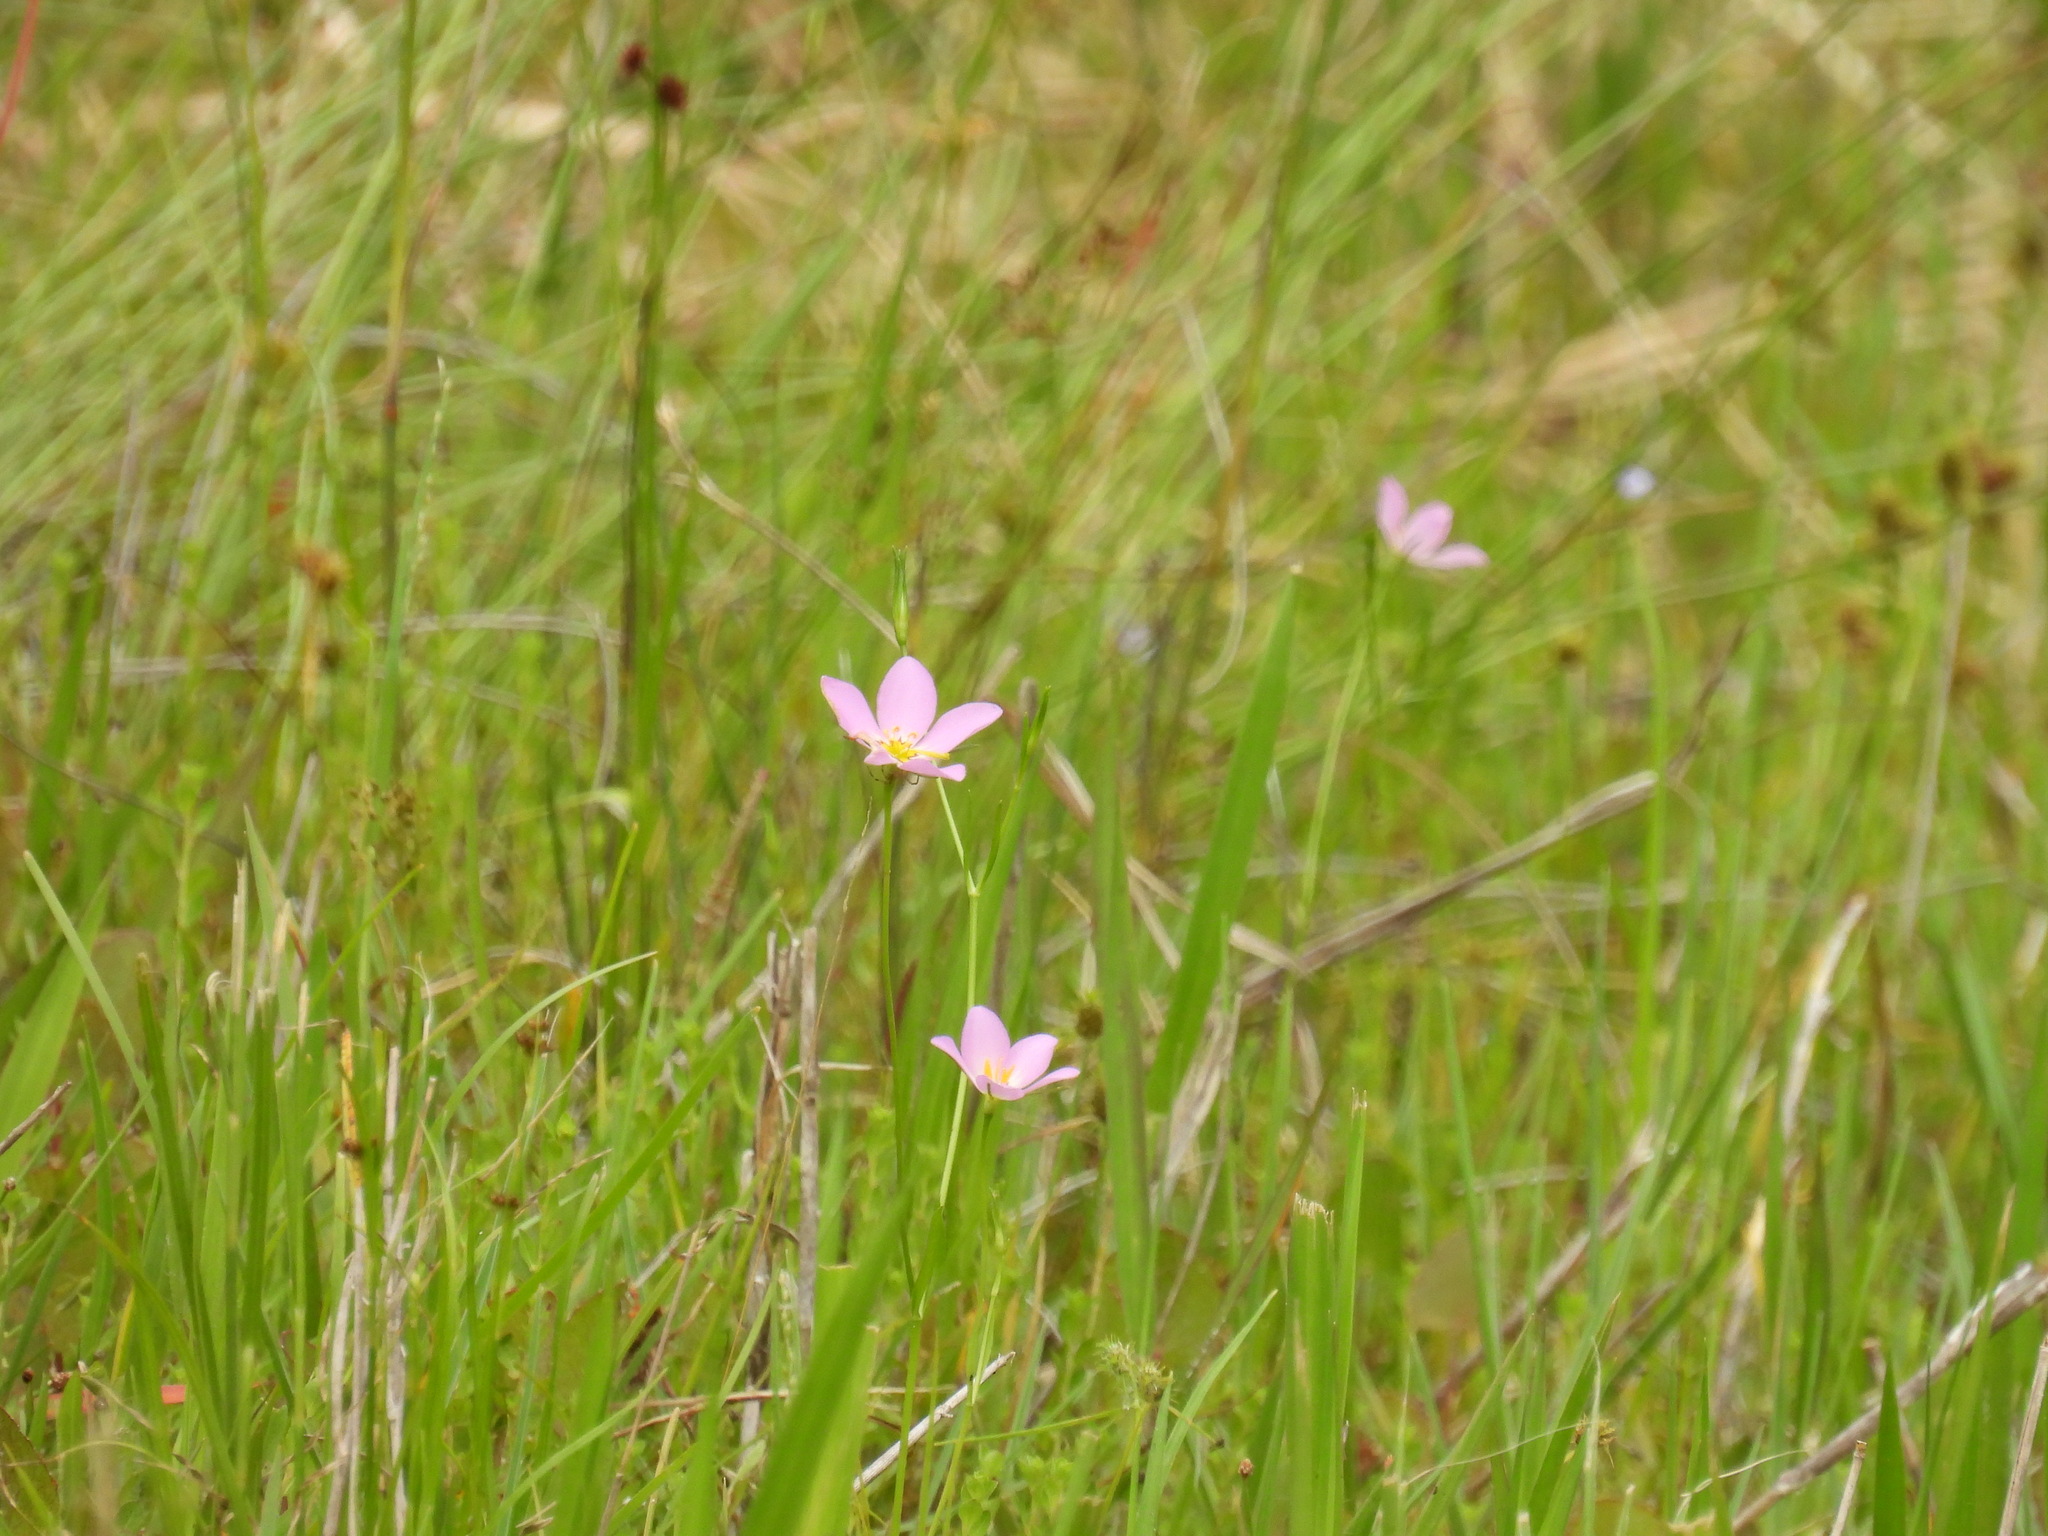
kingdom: Plantae
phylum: Tracheophyta
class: Magnoliopsida
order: Gentianales
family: Gentianaceae
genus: Sabatia
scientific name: Sabatia stellaris
